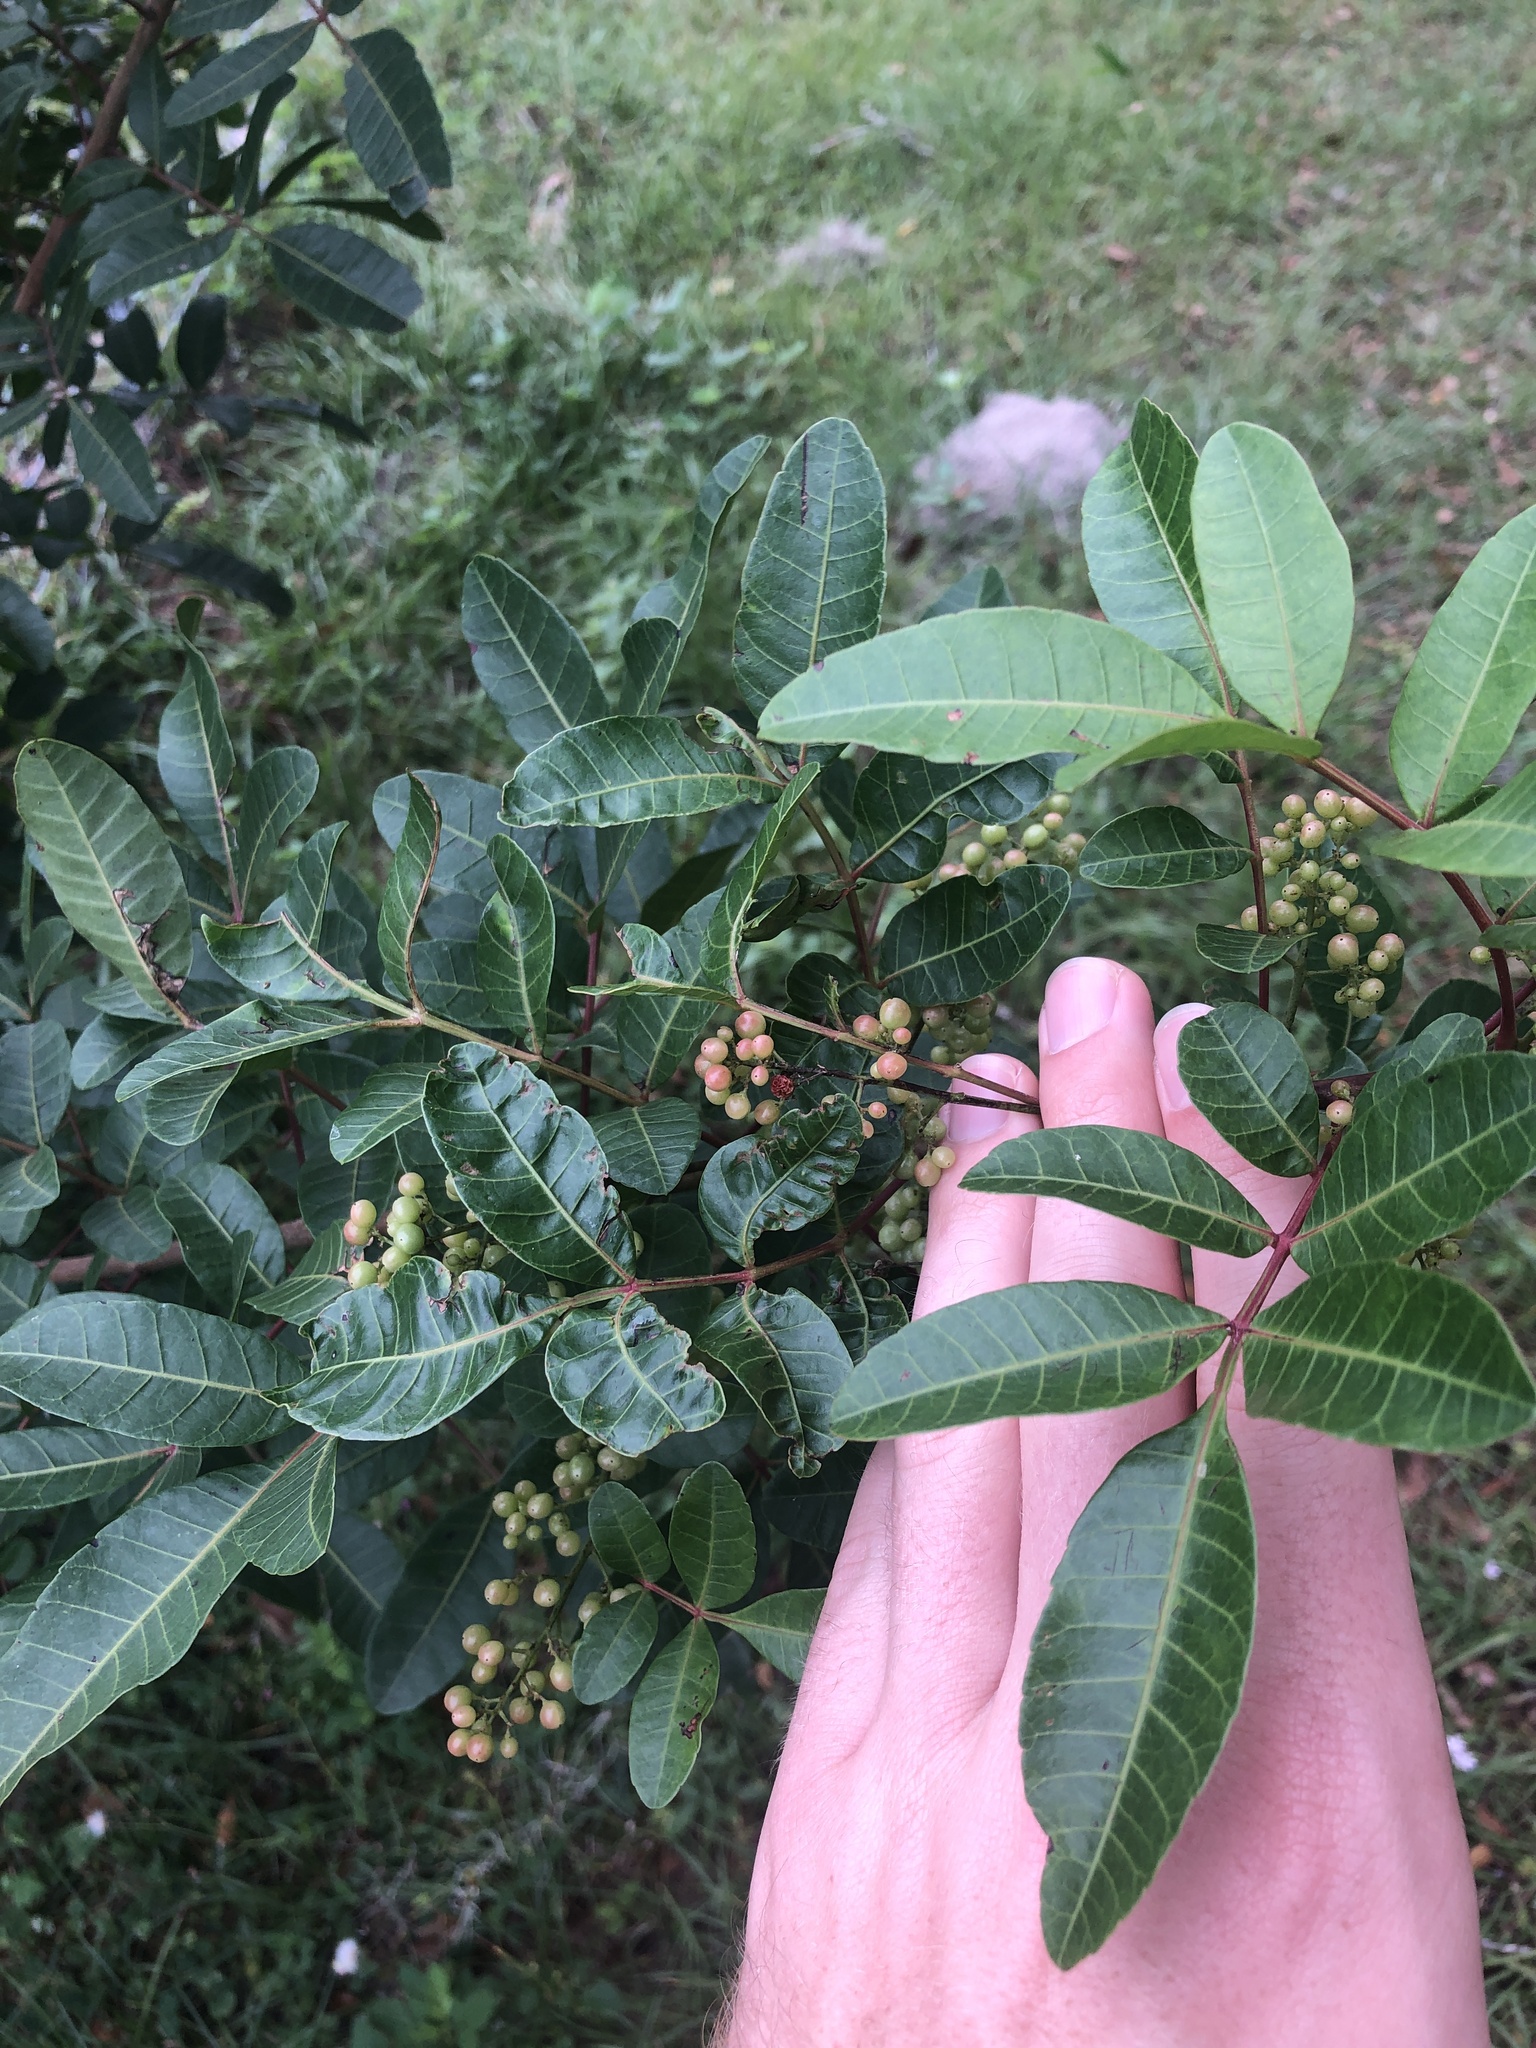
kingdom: Plantae
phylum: Tracheophyta
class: Magnoliopsida
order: Sapindales
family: Anacardiaceae
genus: Schinus
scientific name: Schinus terebinthifolia
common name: Brazilian peppertree
